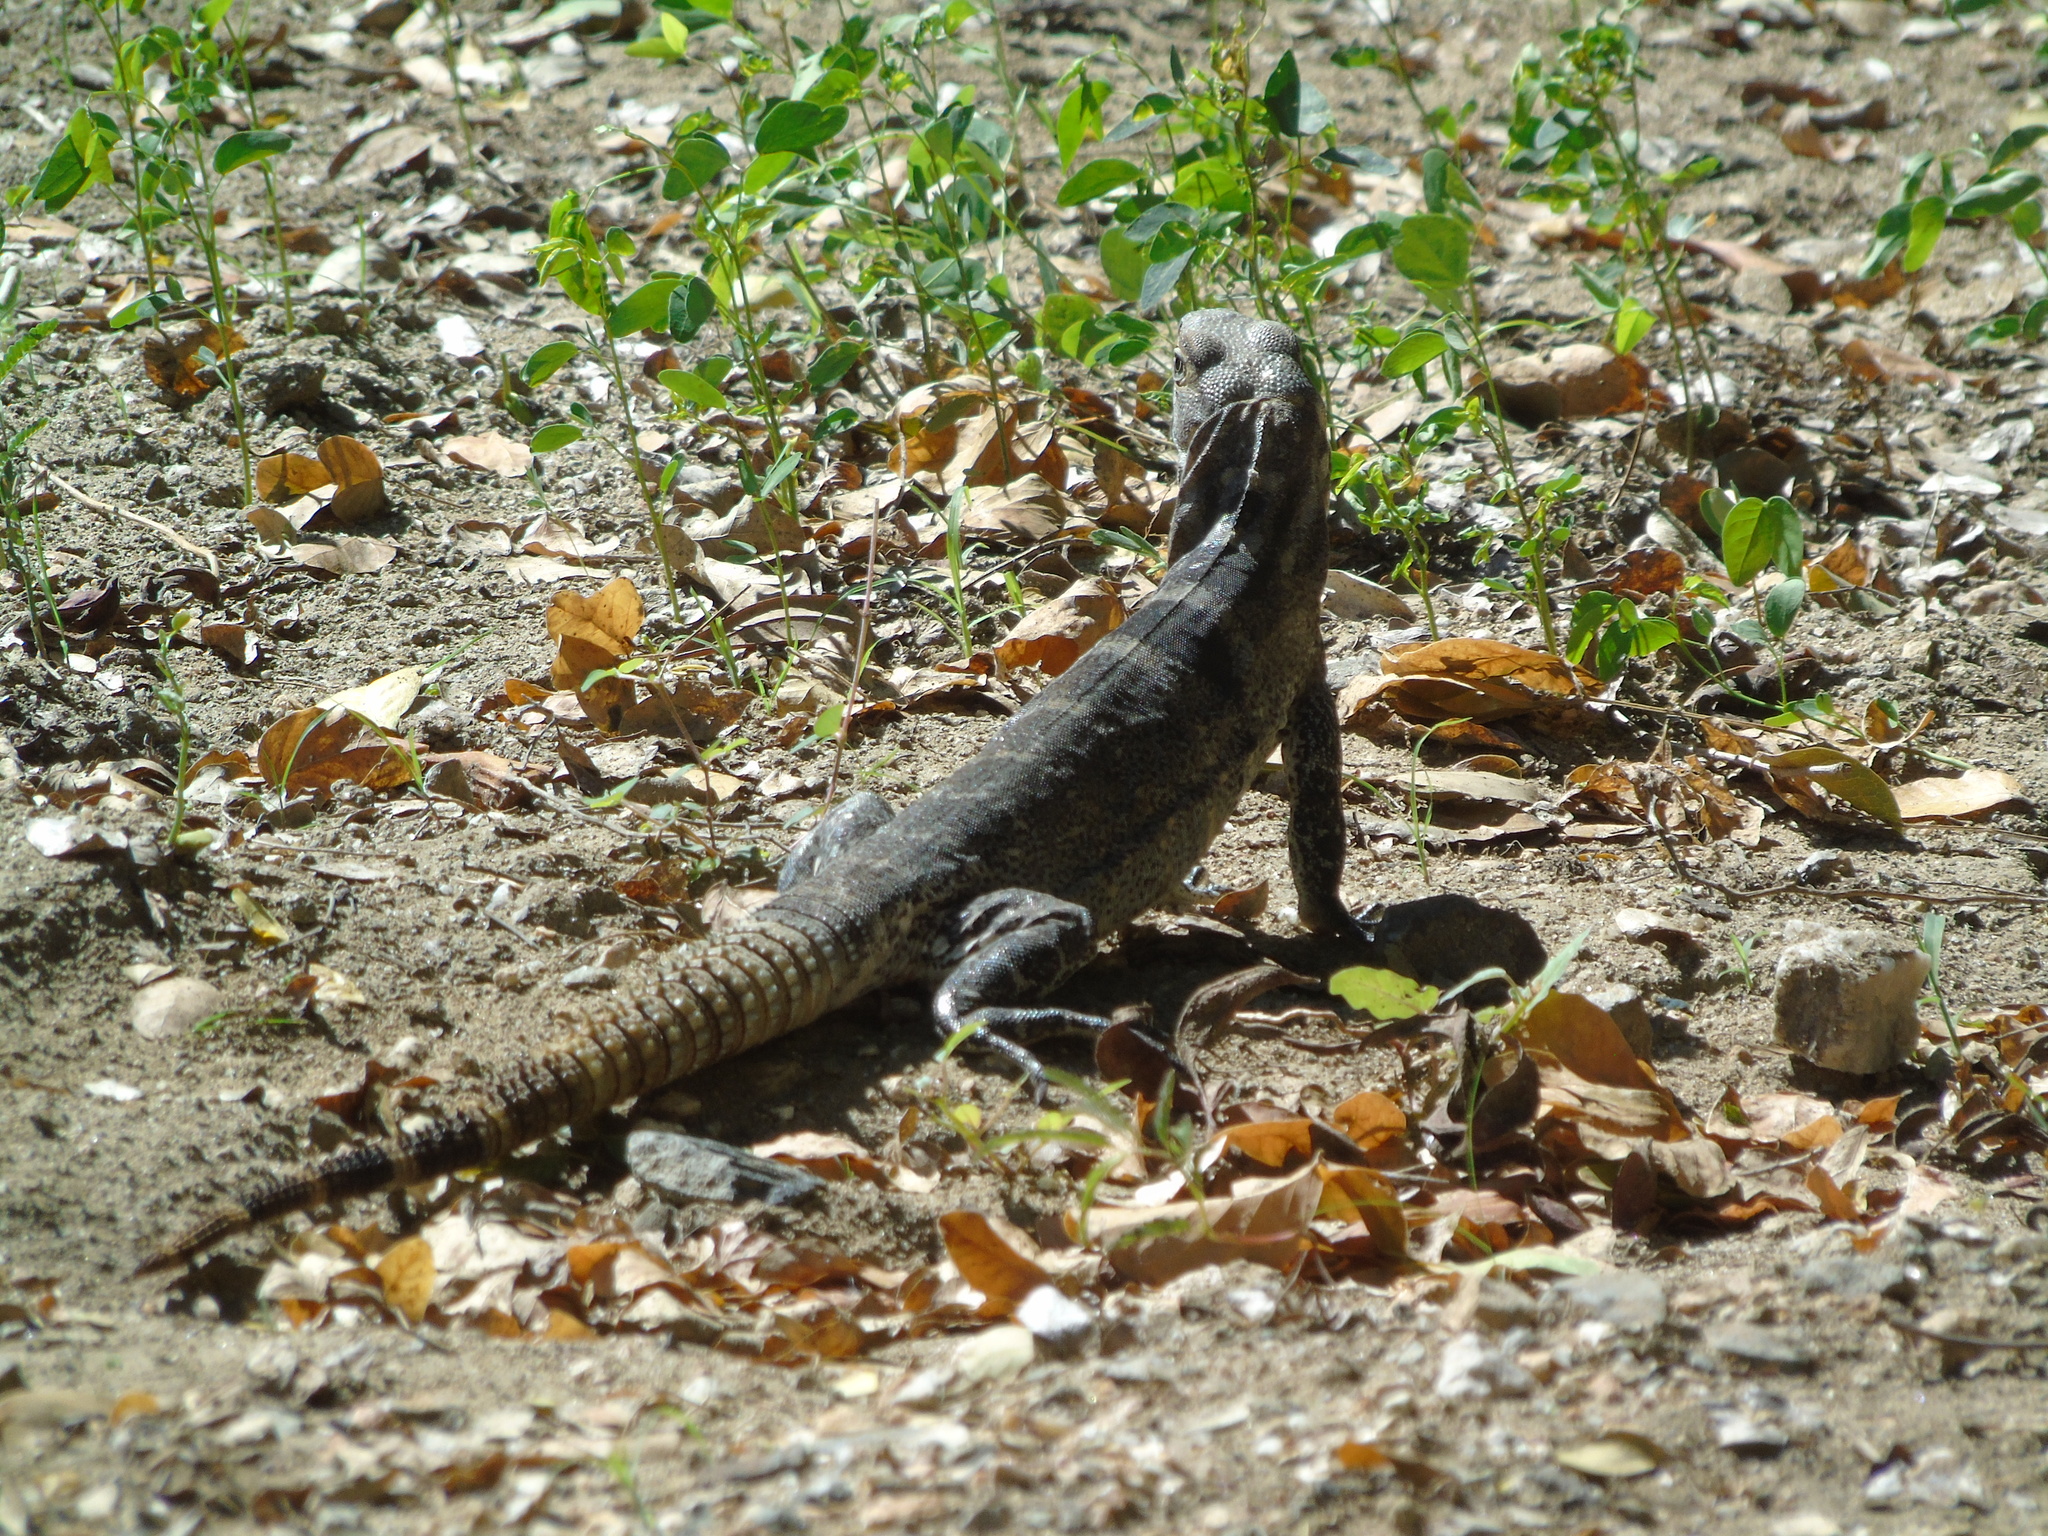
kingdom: Animalia
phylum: Chordata
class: Squamata
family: Iguanidae
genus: Ctenosaura
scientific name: Ctenosaura hemilopha
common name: Baja california spiny- tailed iguana
